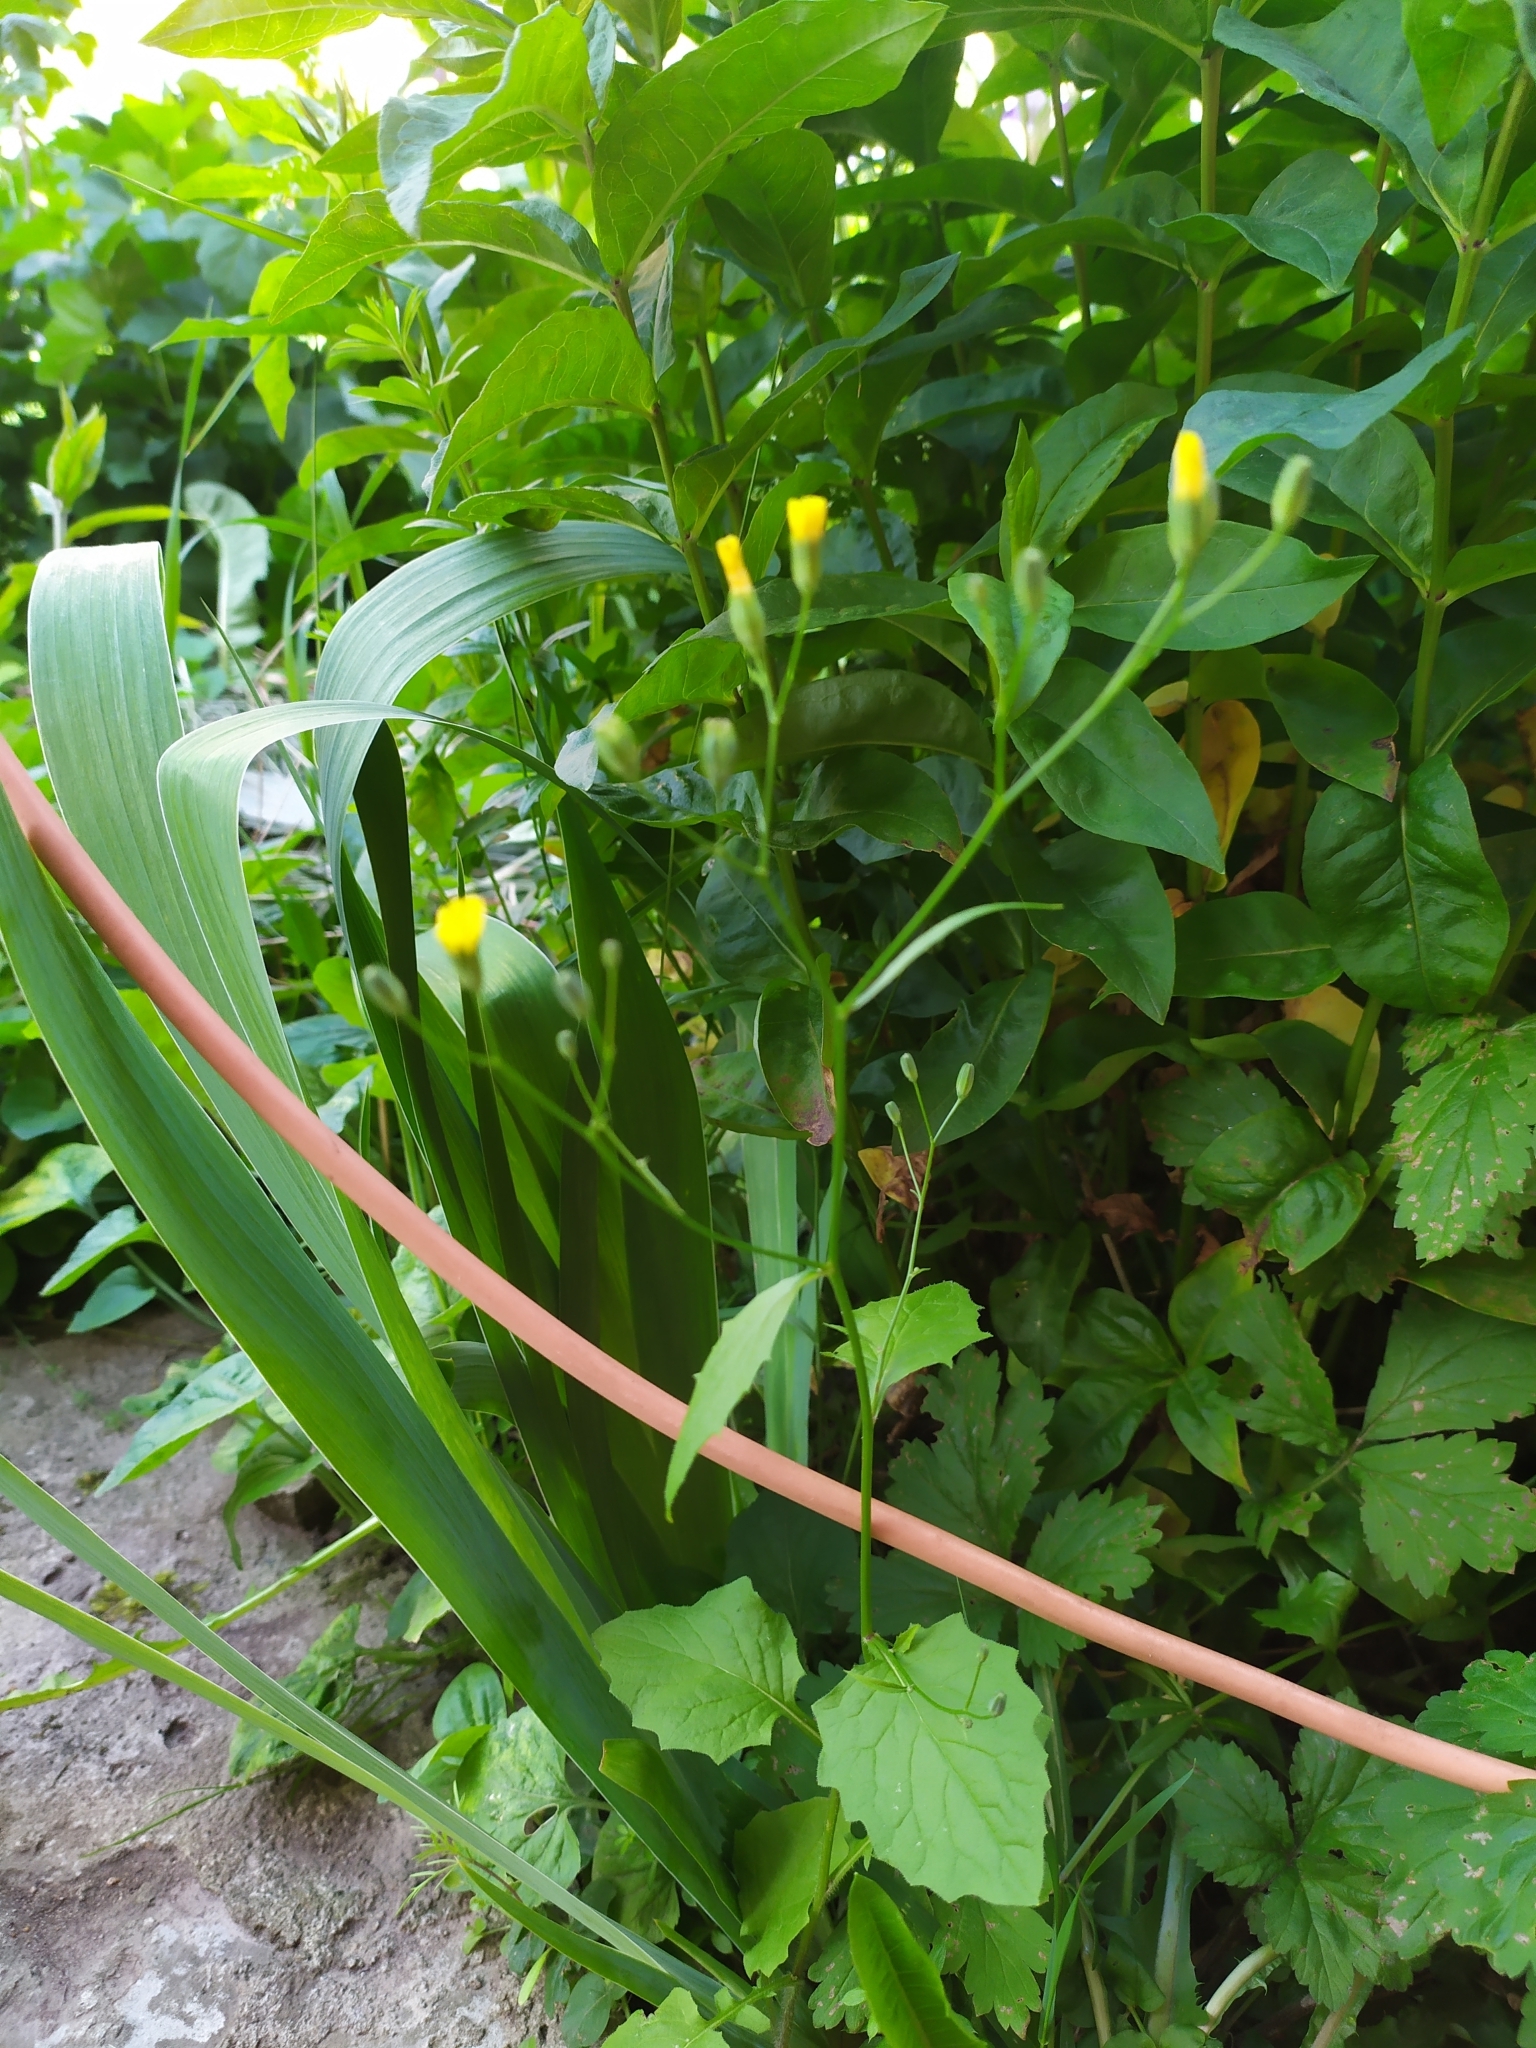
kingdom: Plantae
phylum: Tracheophyta
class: Magnoliopsida
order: Asterales
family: Asteraceae
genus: Lapsana
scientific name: Lapsana communis
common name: Nipplewort
